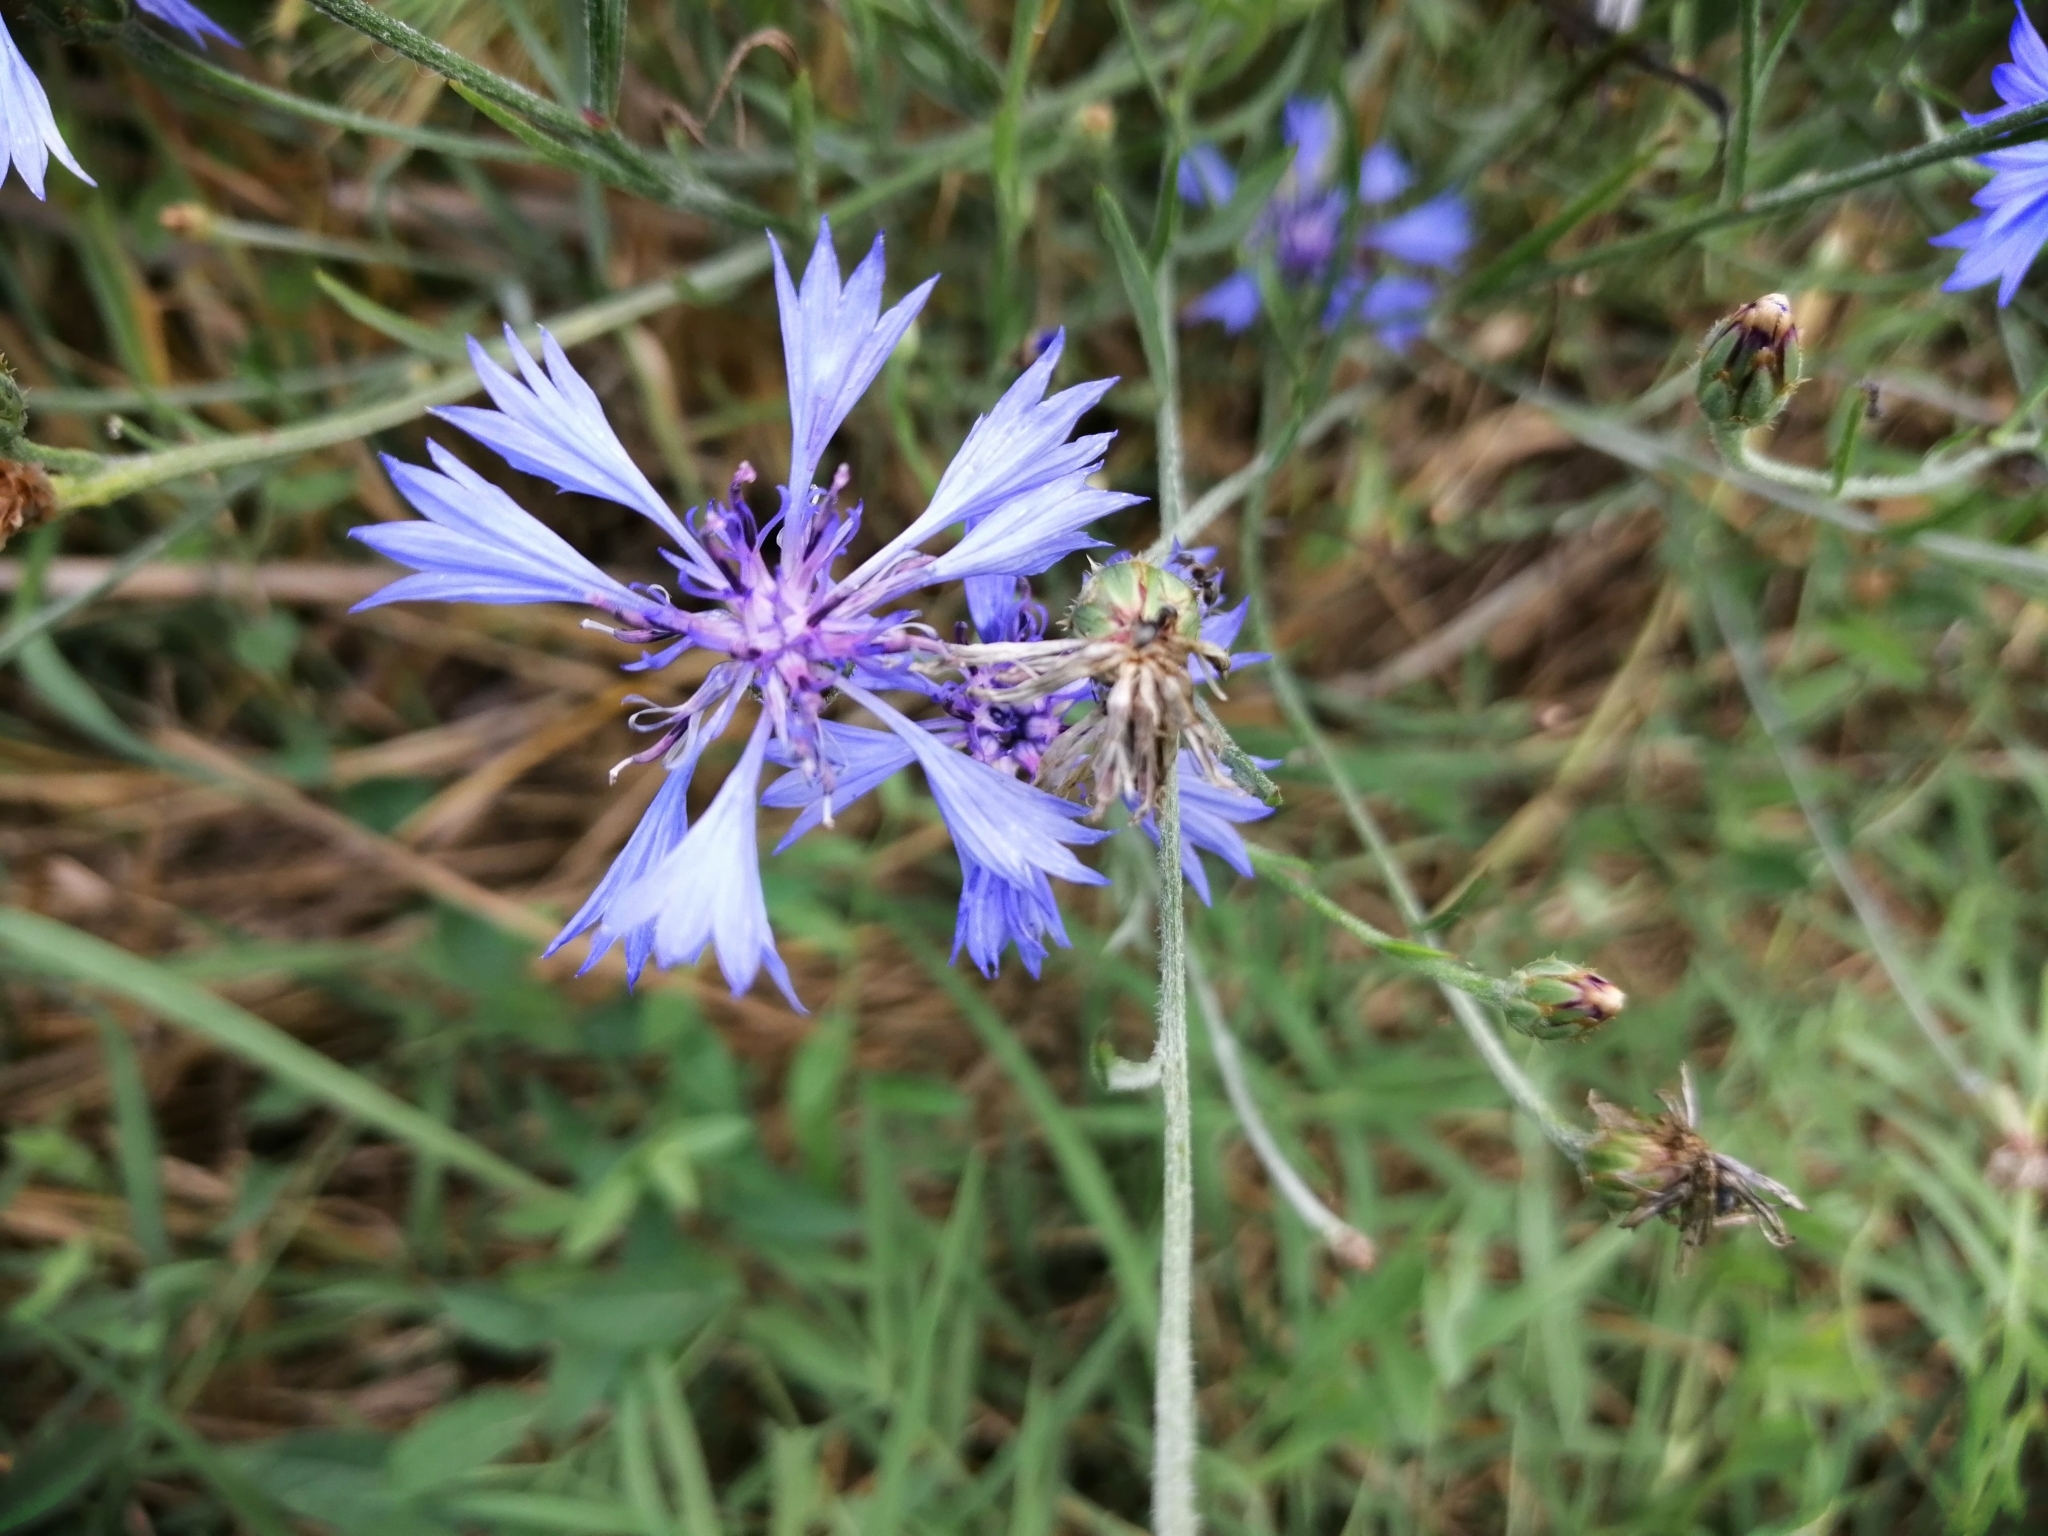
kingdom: Plantae
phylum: Tracheophyta
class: Magnoliopsida
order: Asterales
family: Asteraceae
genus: Centaurea
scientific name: Centaurea cyanus
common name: Cornflower
